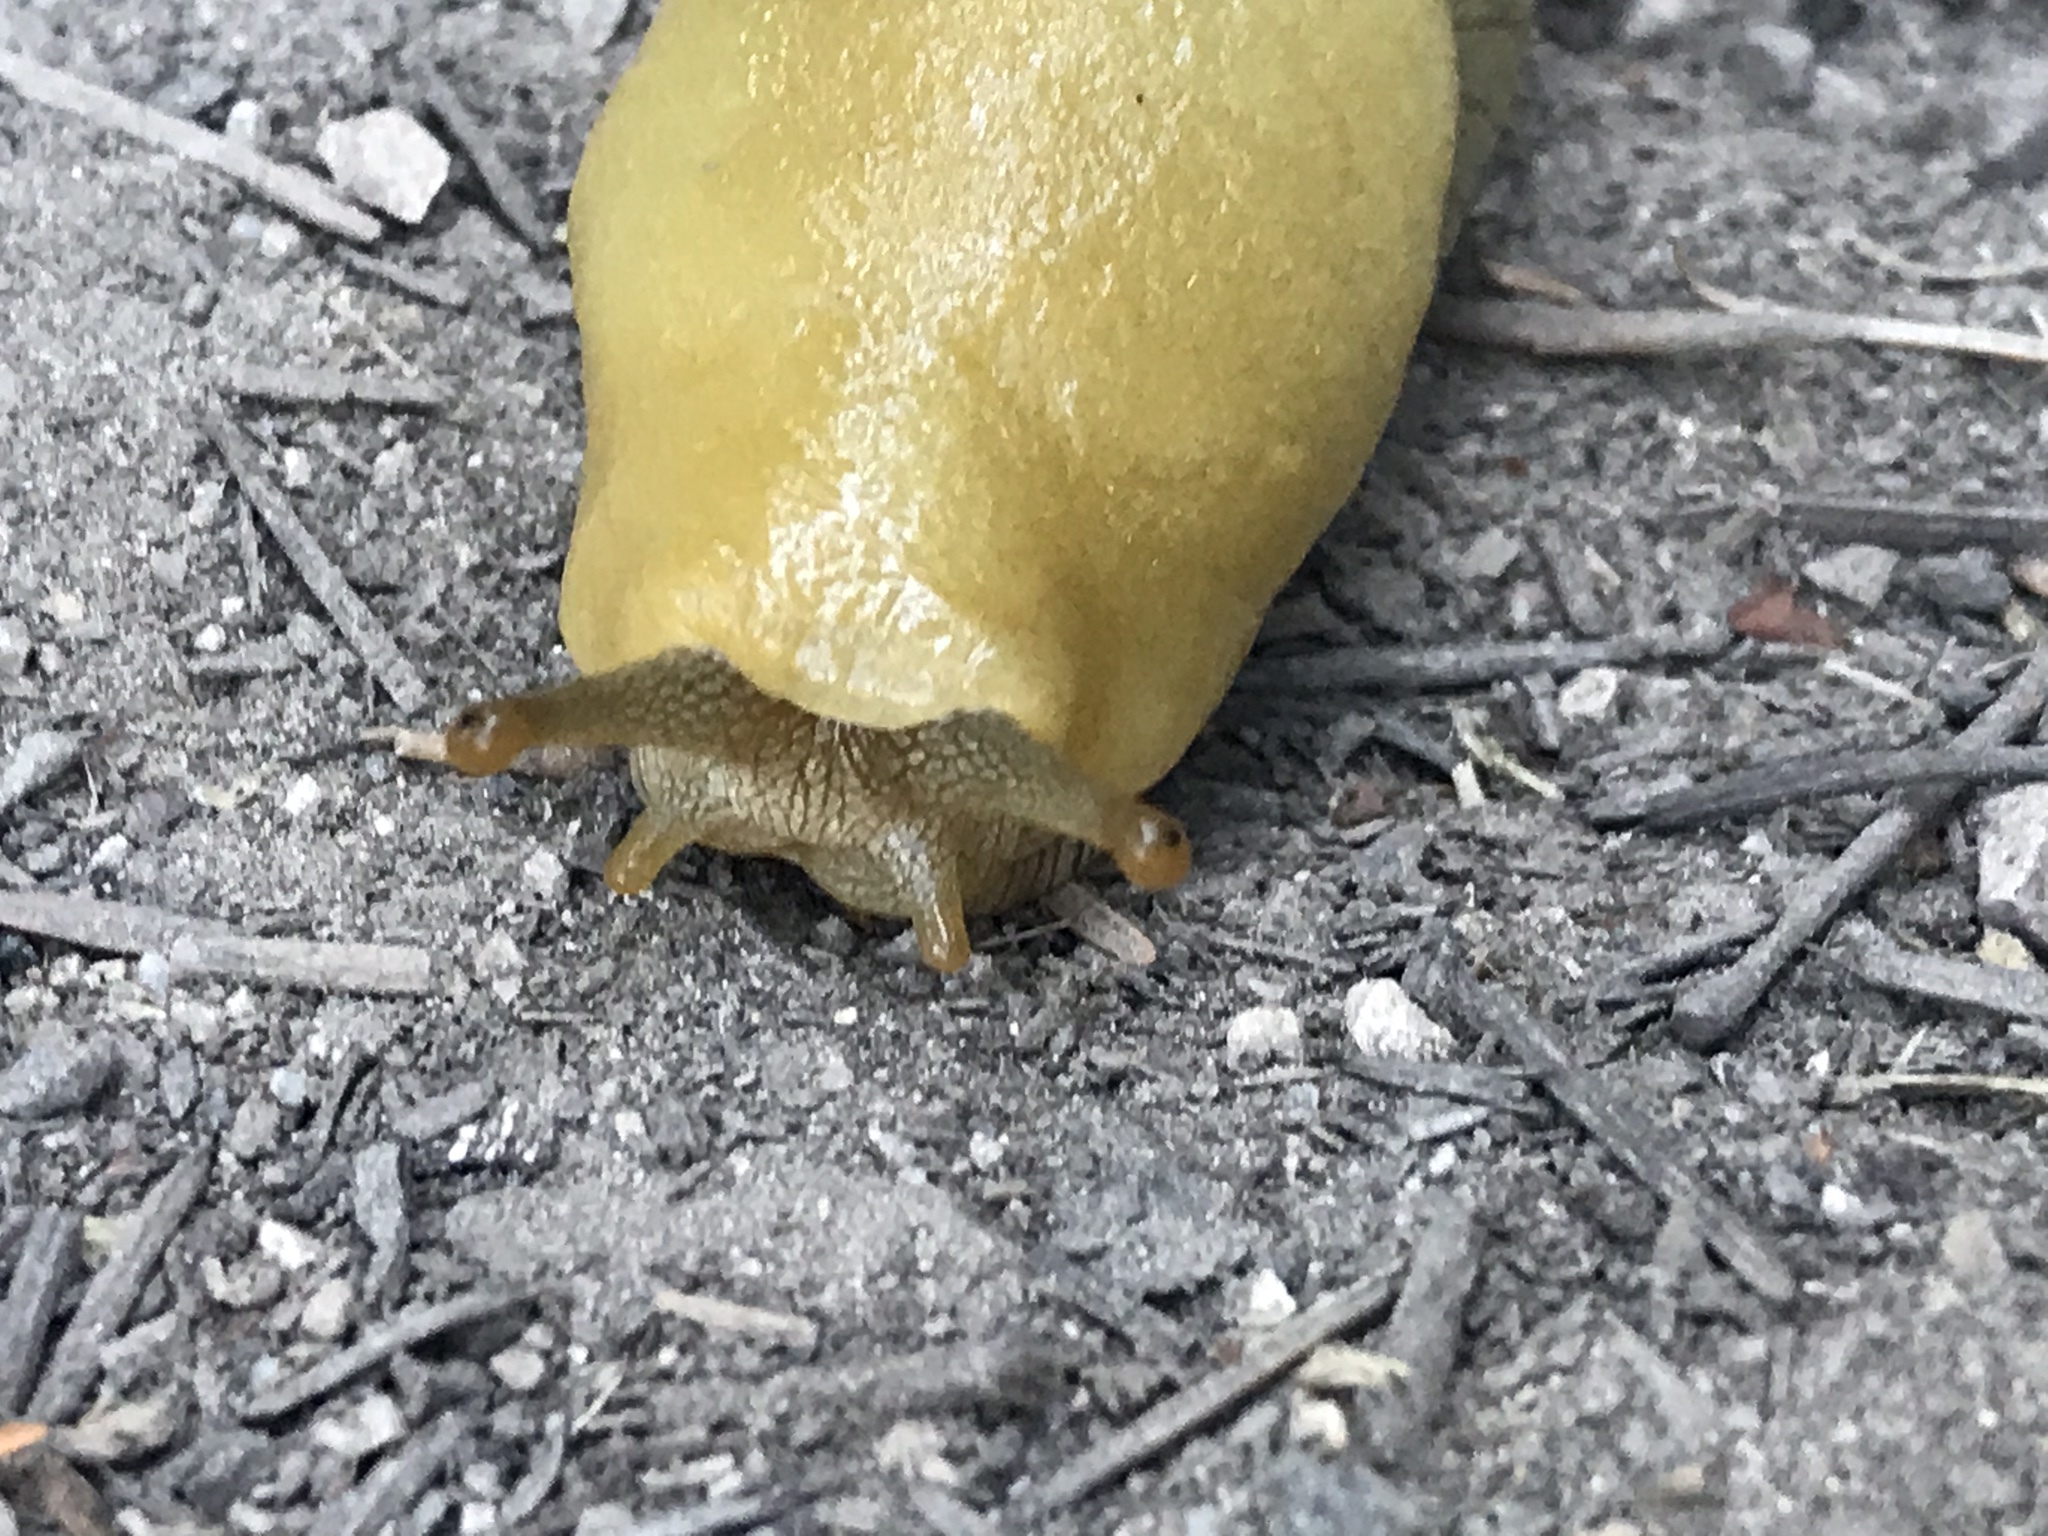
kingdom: Animalia
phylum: Mollusca
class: Gastropoda
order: Stylommatophora
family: Ariolimacidae
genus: Ariolimax
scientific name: Ariolimax buttoni
